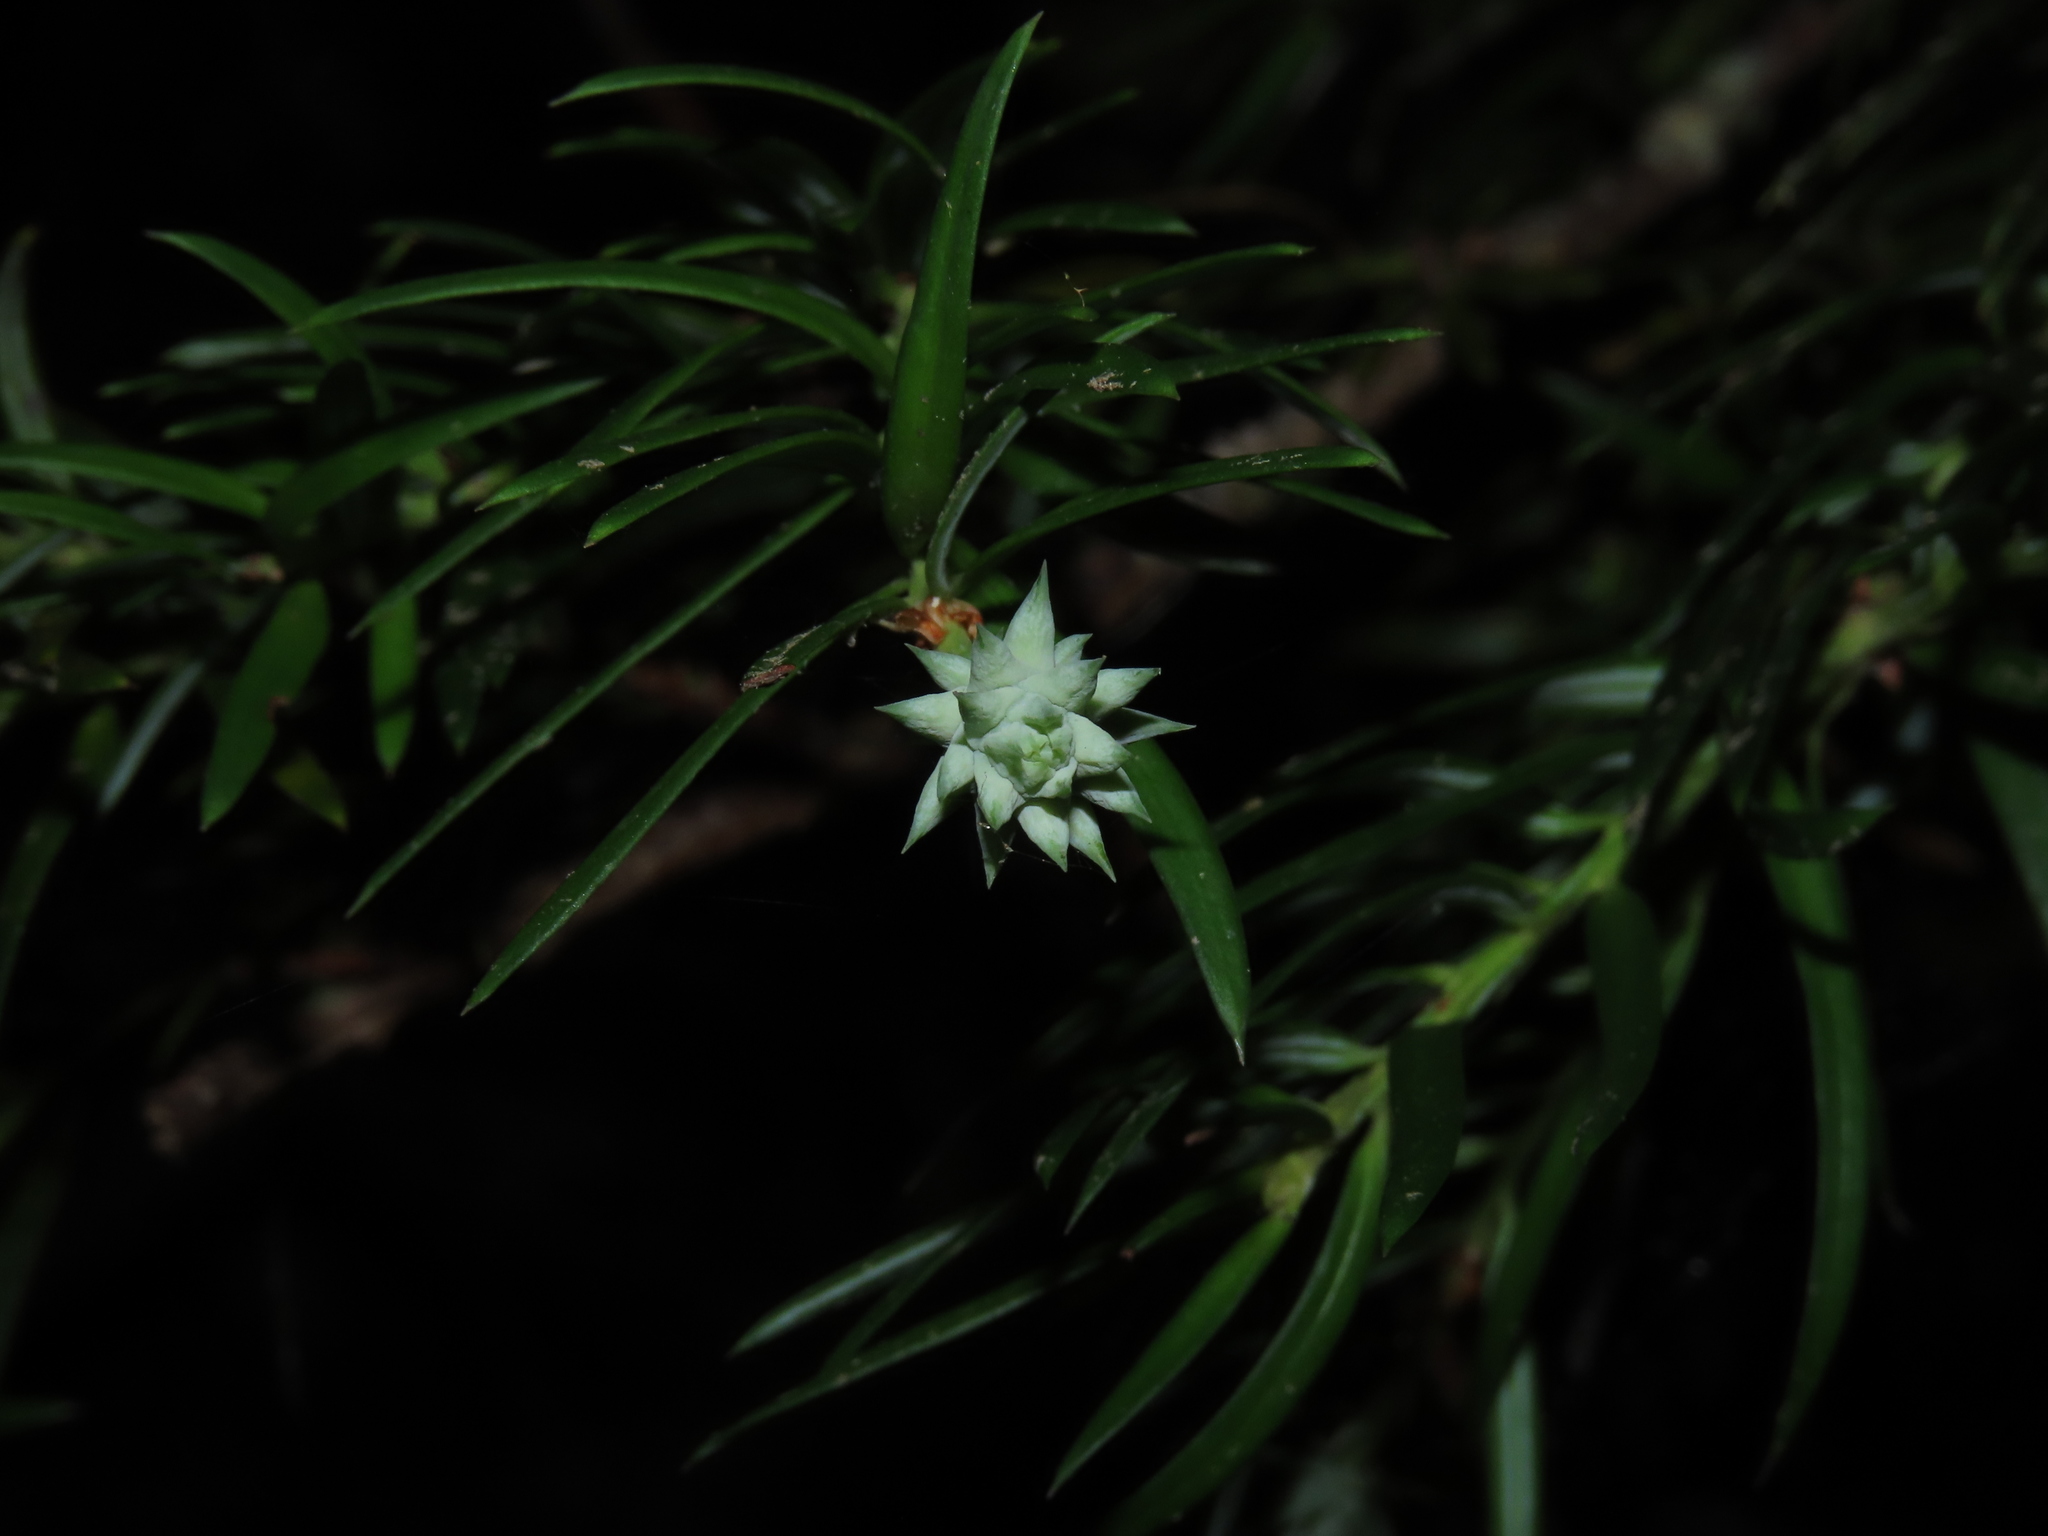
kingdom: Plantae
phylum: Tracheophyta
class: Pinopsida
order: Pinales
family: Podocarpaceae
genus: Saxegothaea
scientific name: Saxegothaea conspicua
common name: Prince albert's yew
